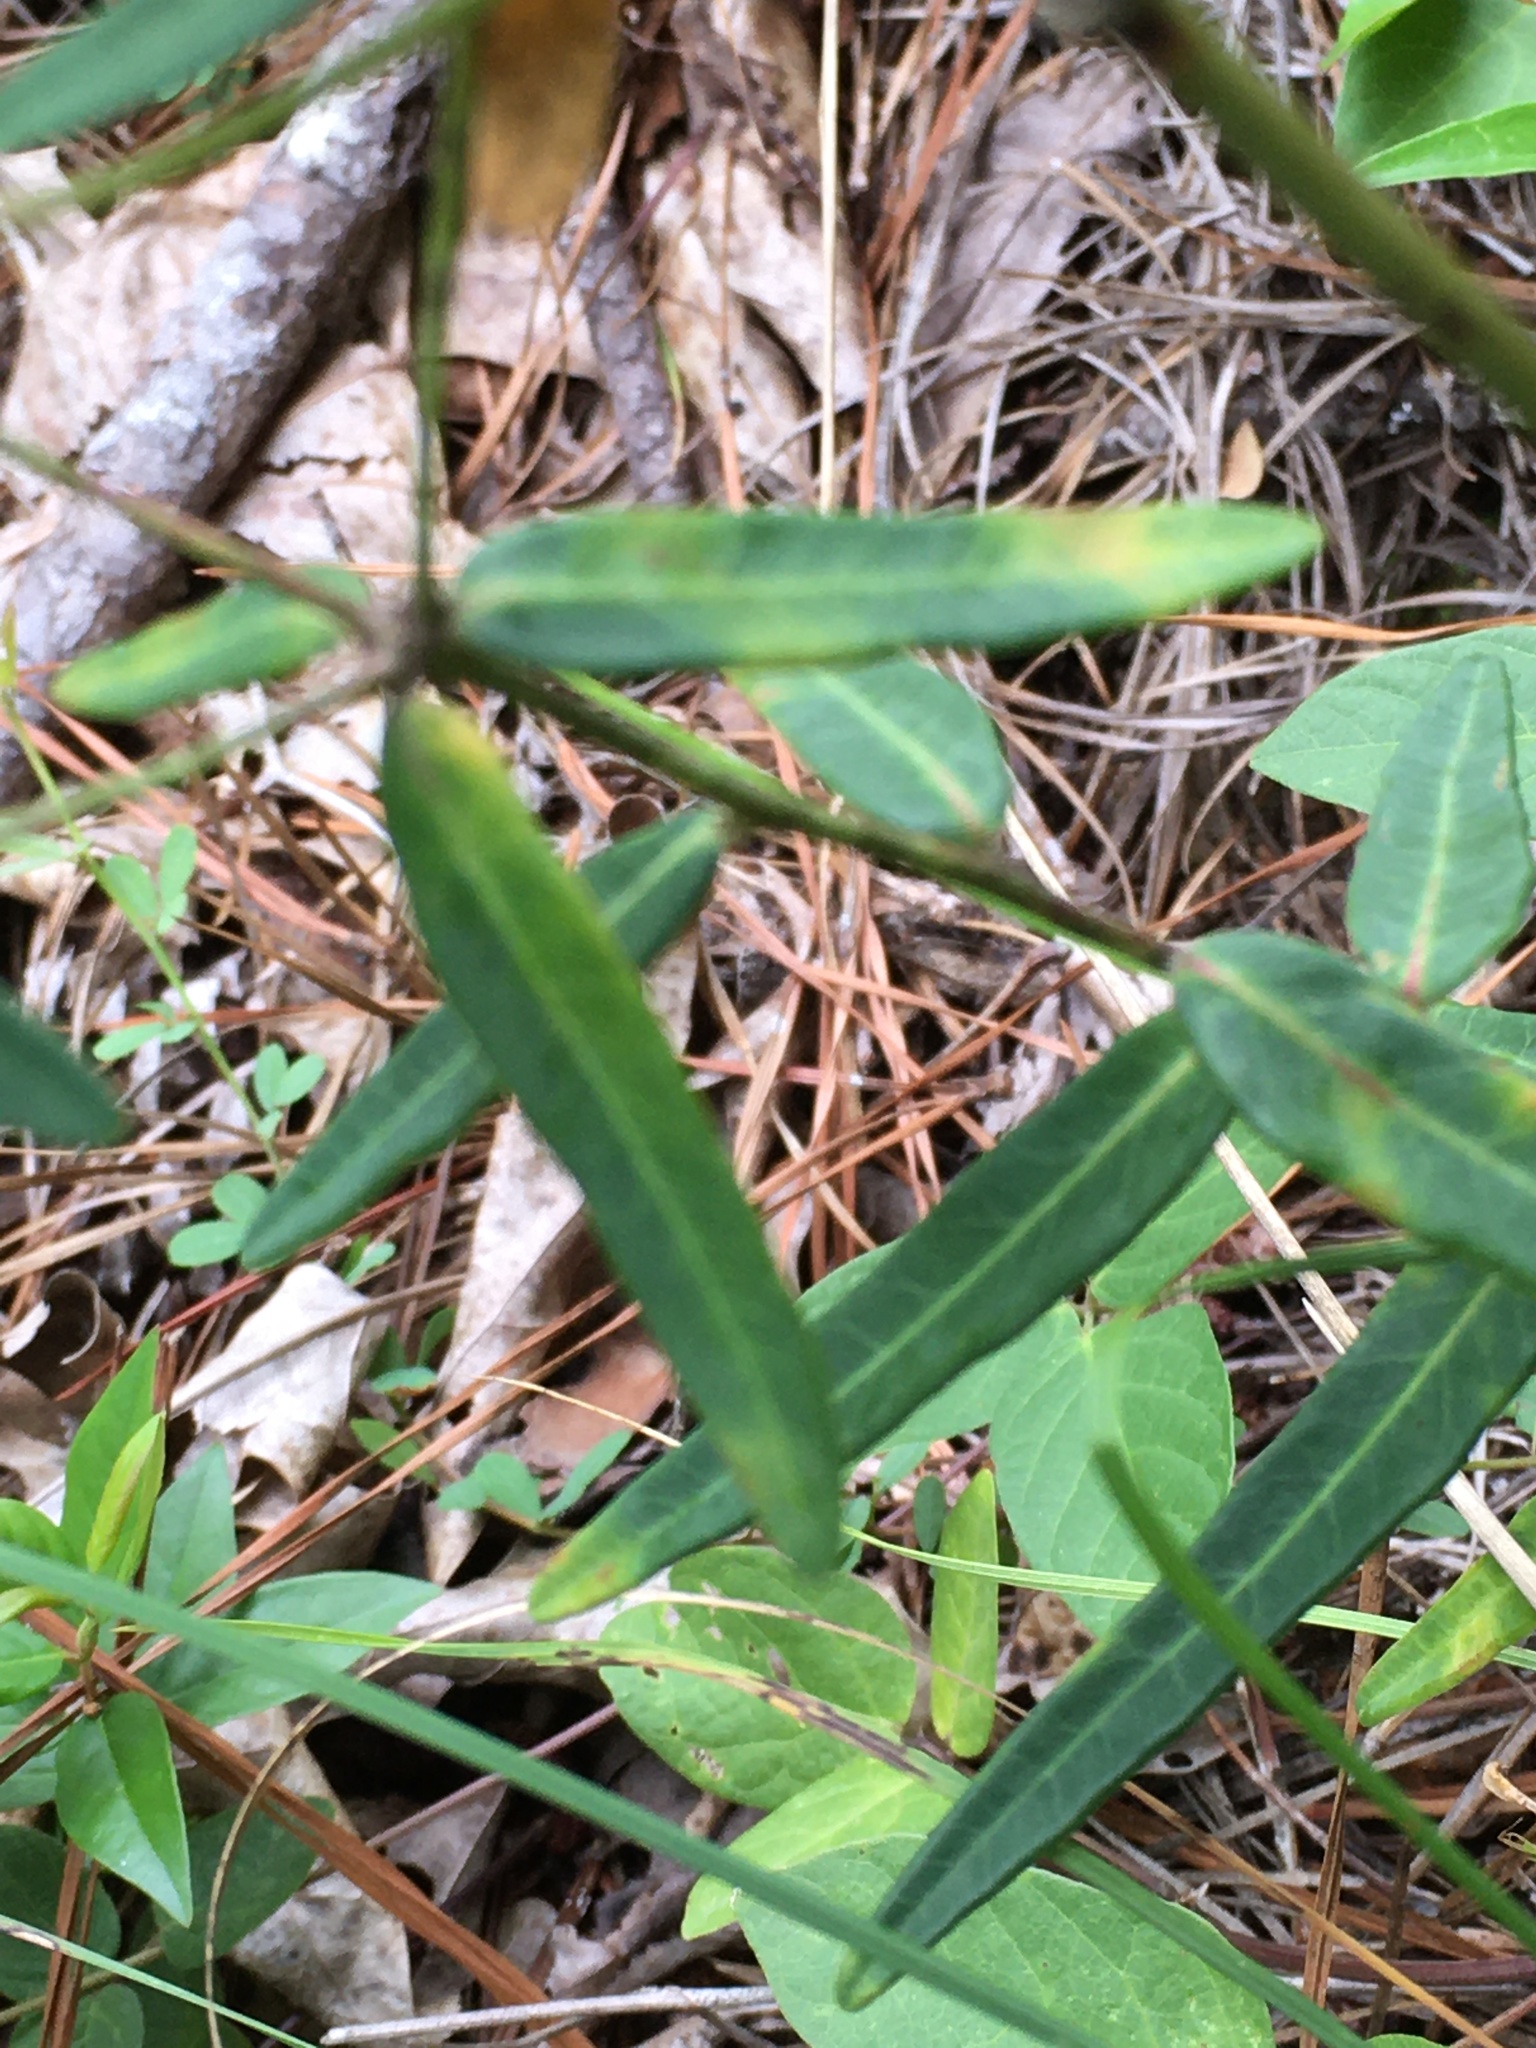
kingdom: Plantae
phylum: Tracheophyta
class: Magnoliopsida
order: Malpighiales
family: Euphorbiaceae
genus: Euphorbia
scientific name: Euphorbia corollata
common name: Flowering spurge
